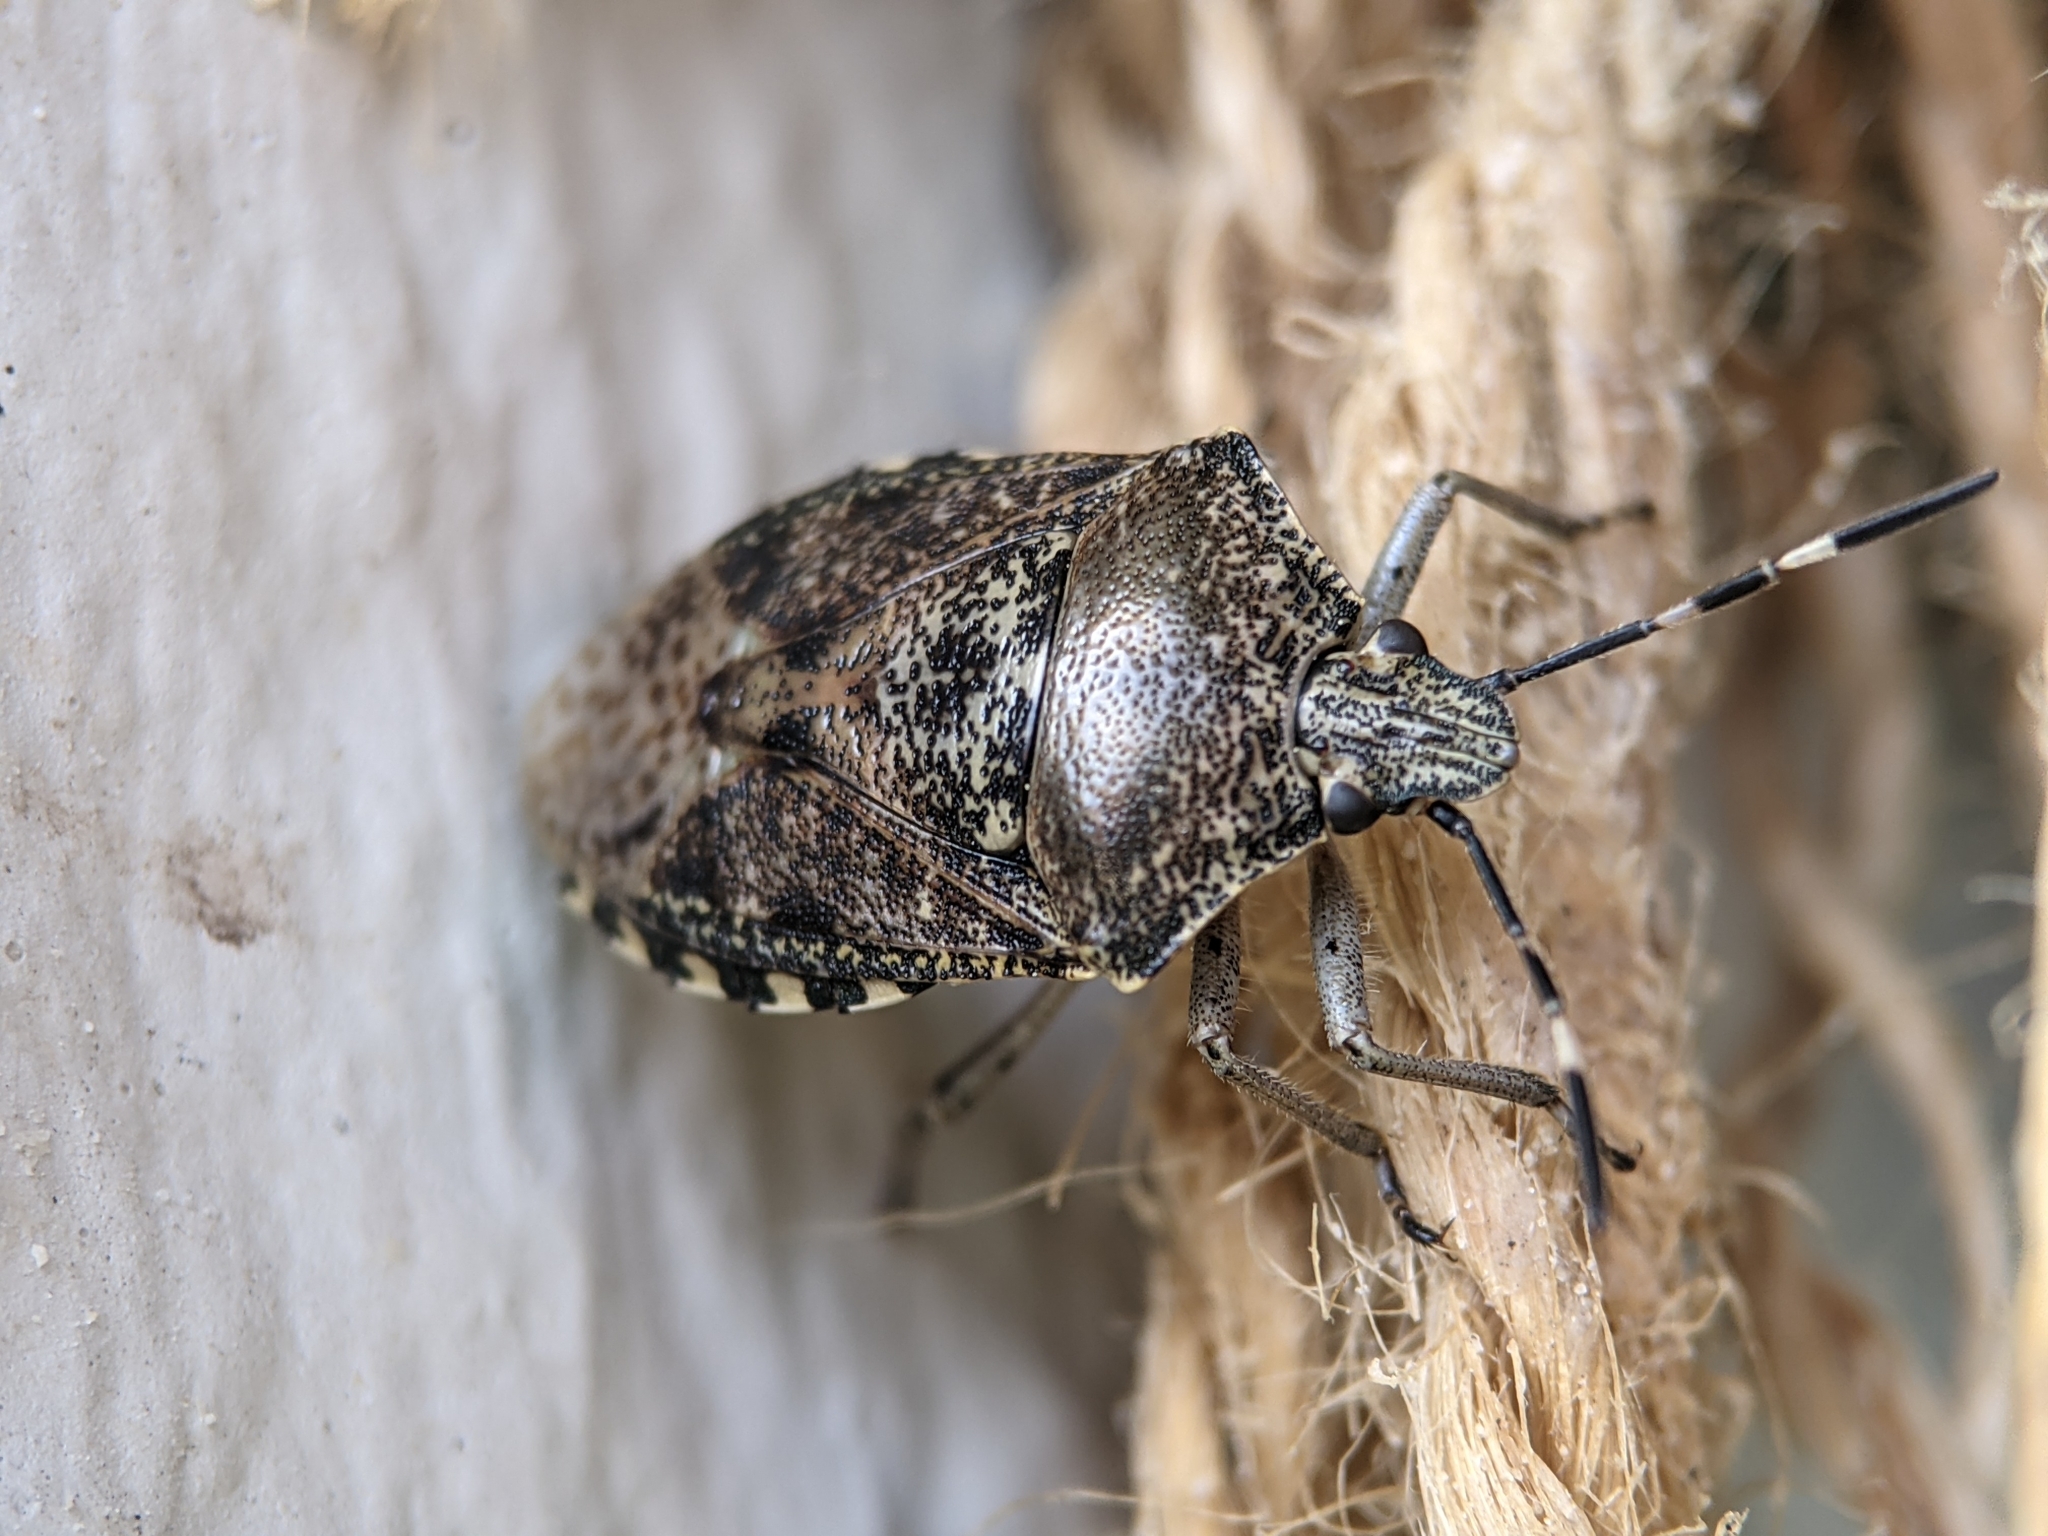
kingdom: Animalia
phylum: Arthropoda
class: Insecta
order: Hemiptera
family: Pentatomidae
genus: Rhaphigaster
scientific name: Rhaphigaster nebulosa
